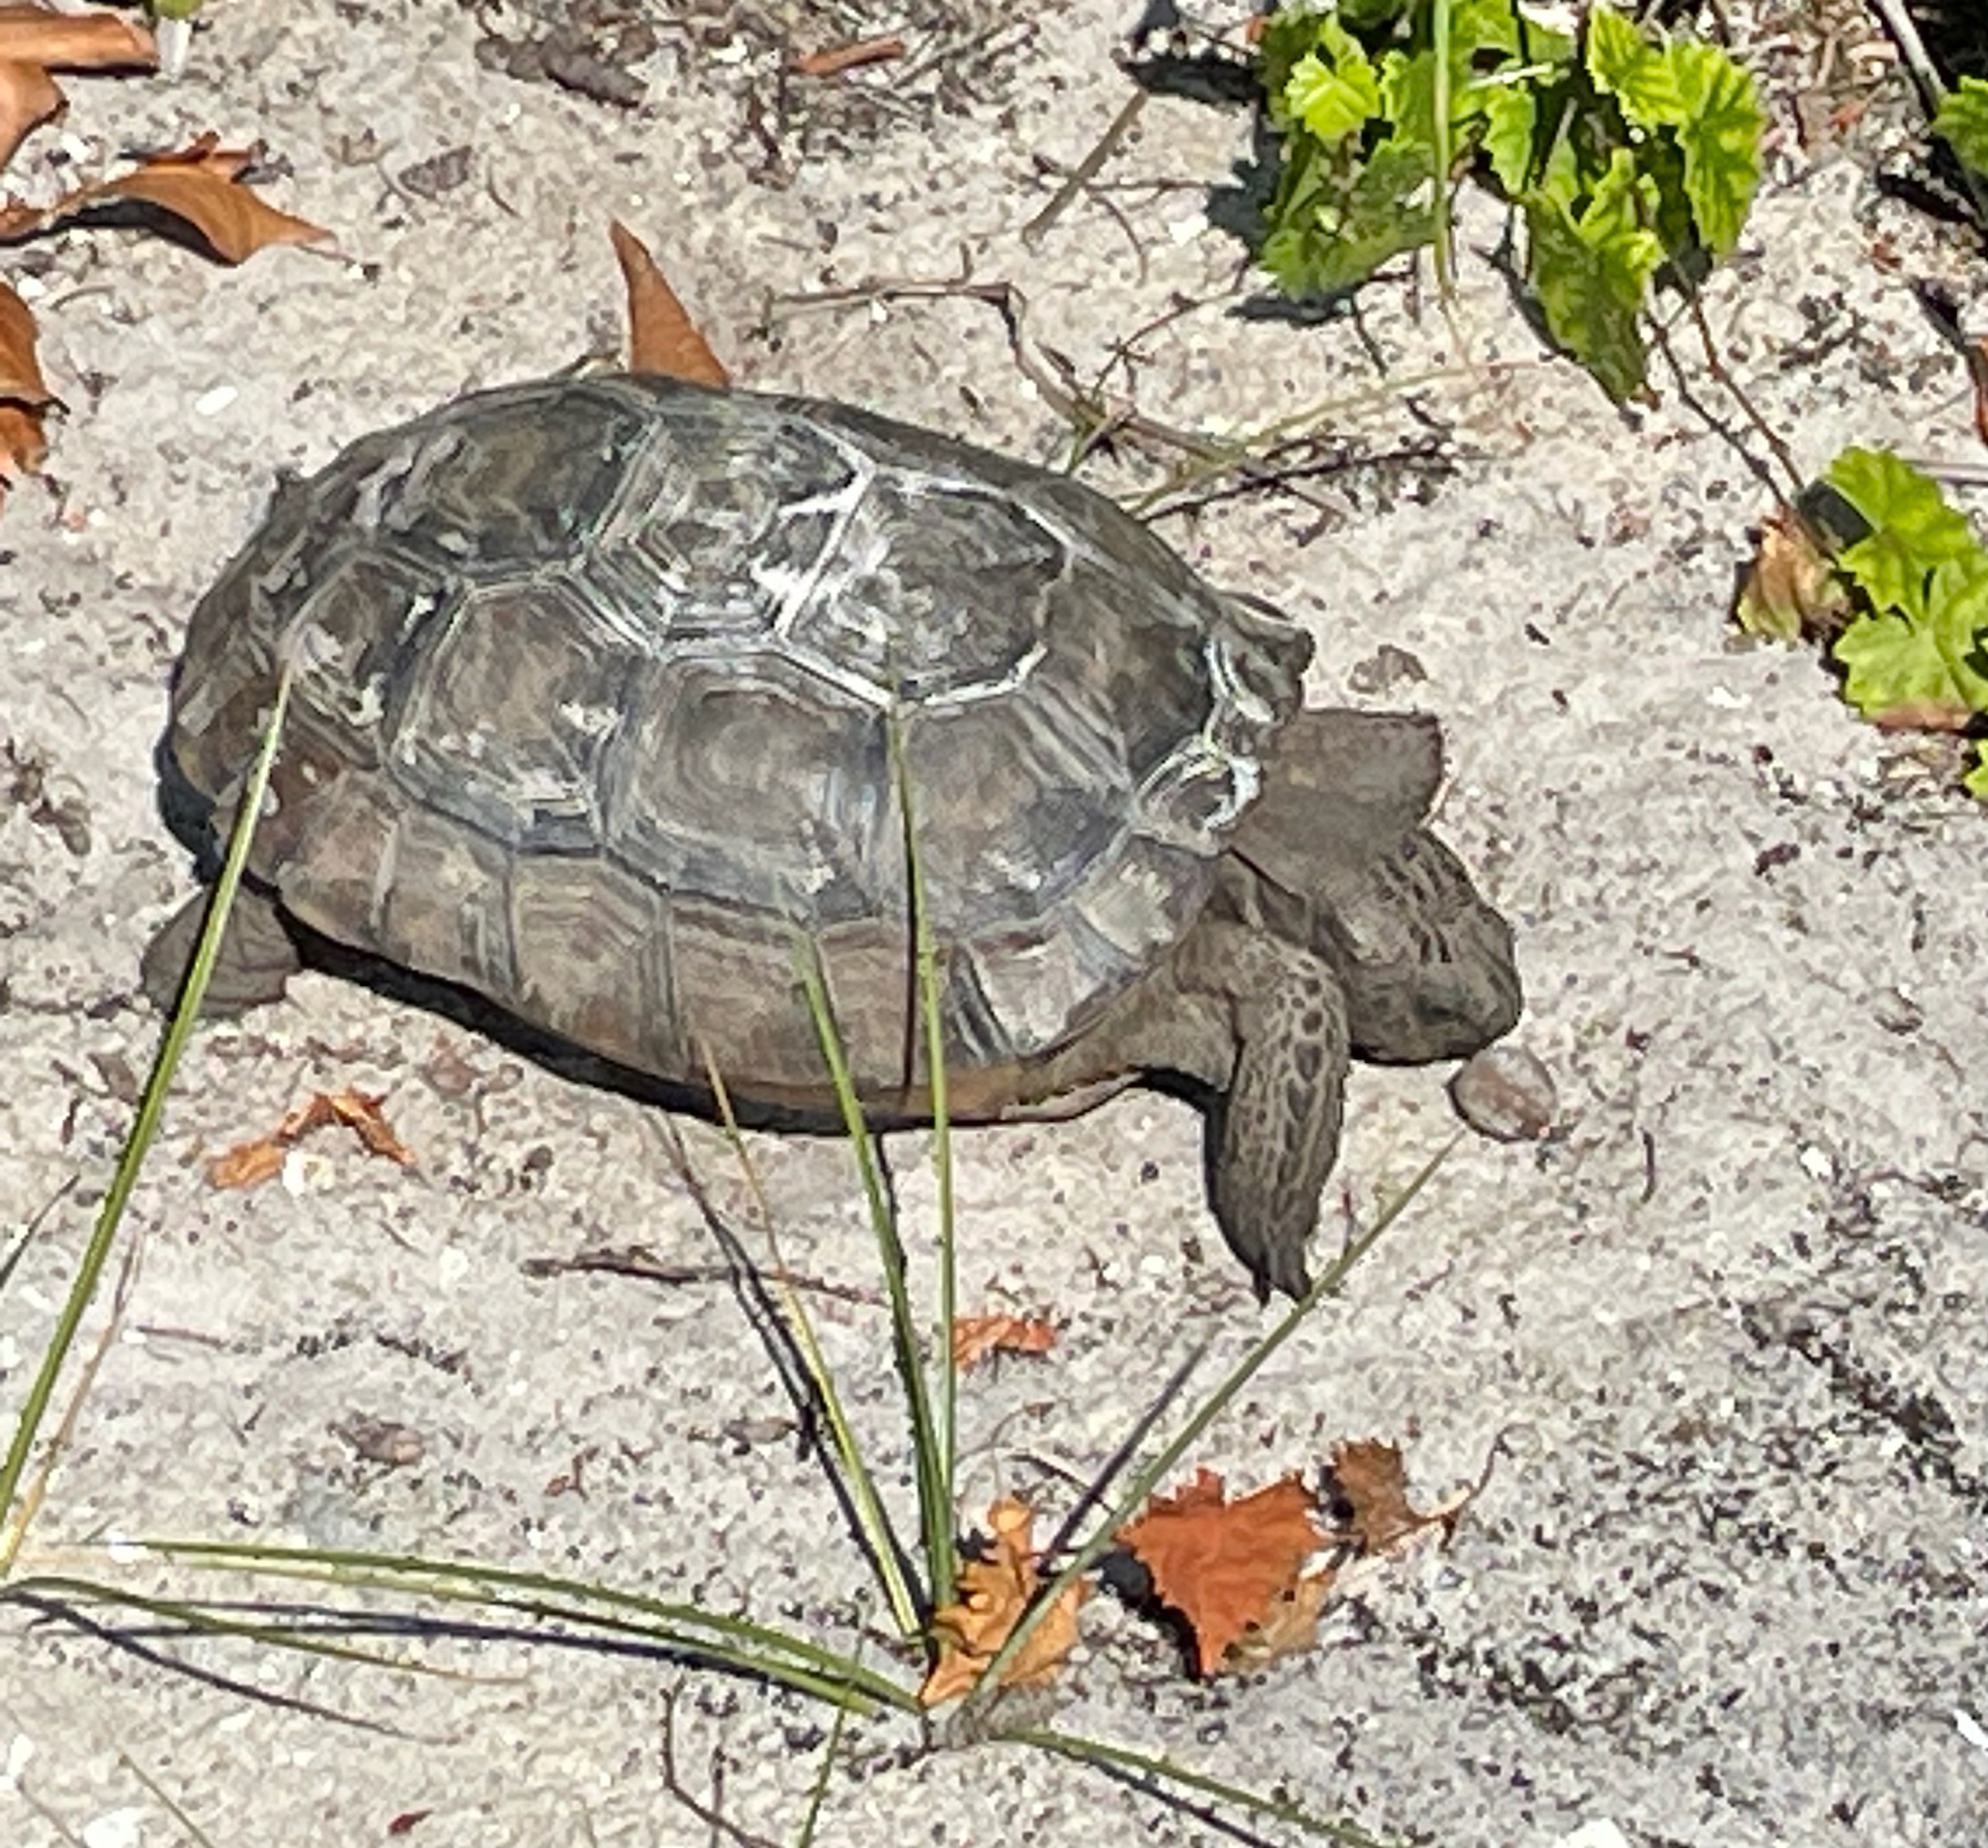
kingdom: Animalia
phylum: Chordata
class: Testudines
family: Testudinidae
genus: Gopherus
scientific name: Gopherus polyphemus
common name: Florida gopher tortoise
